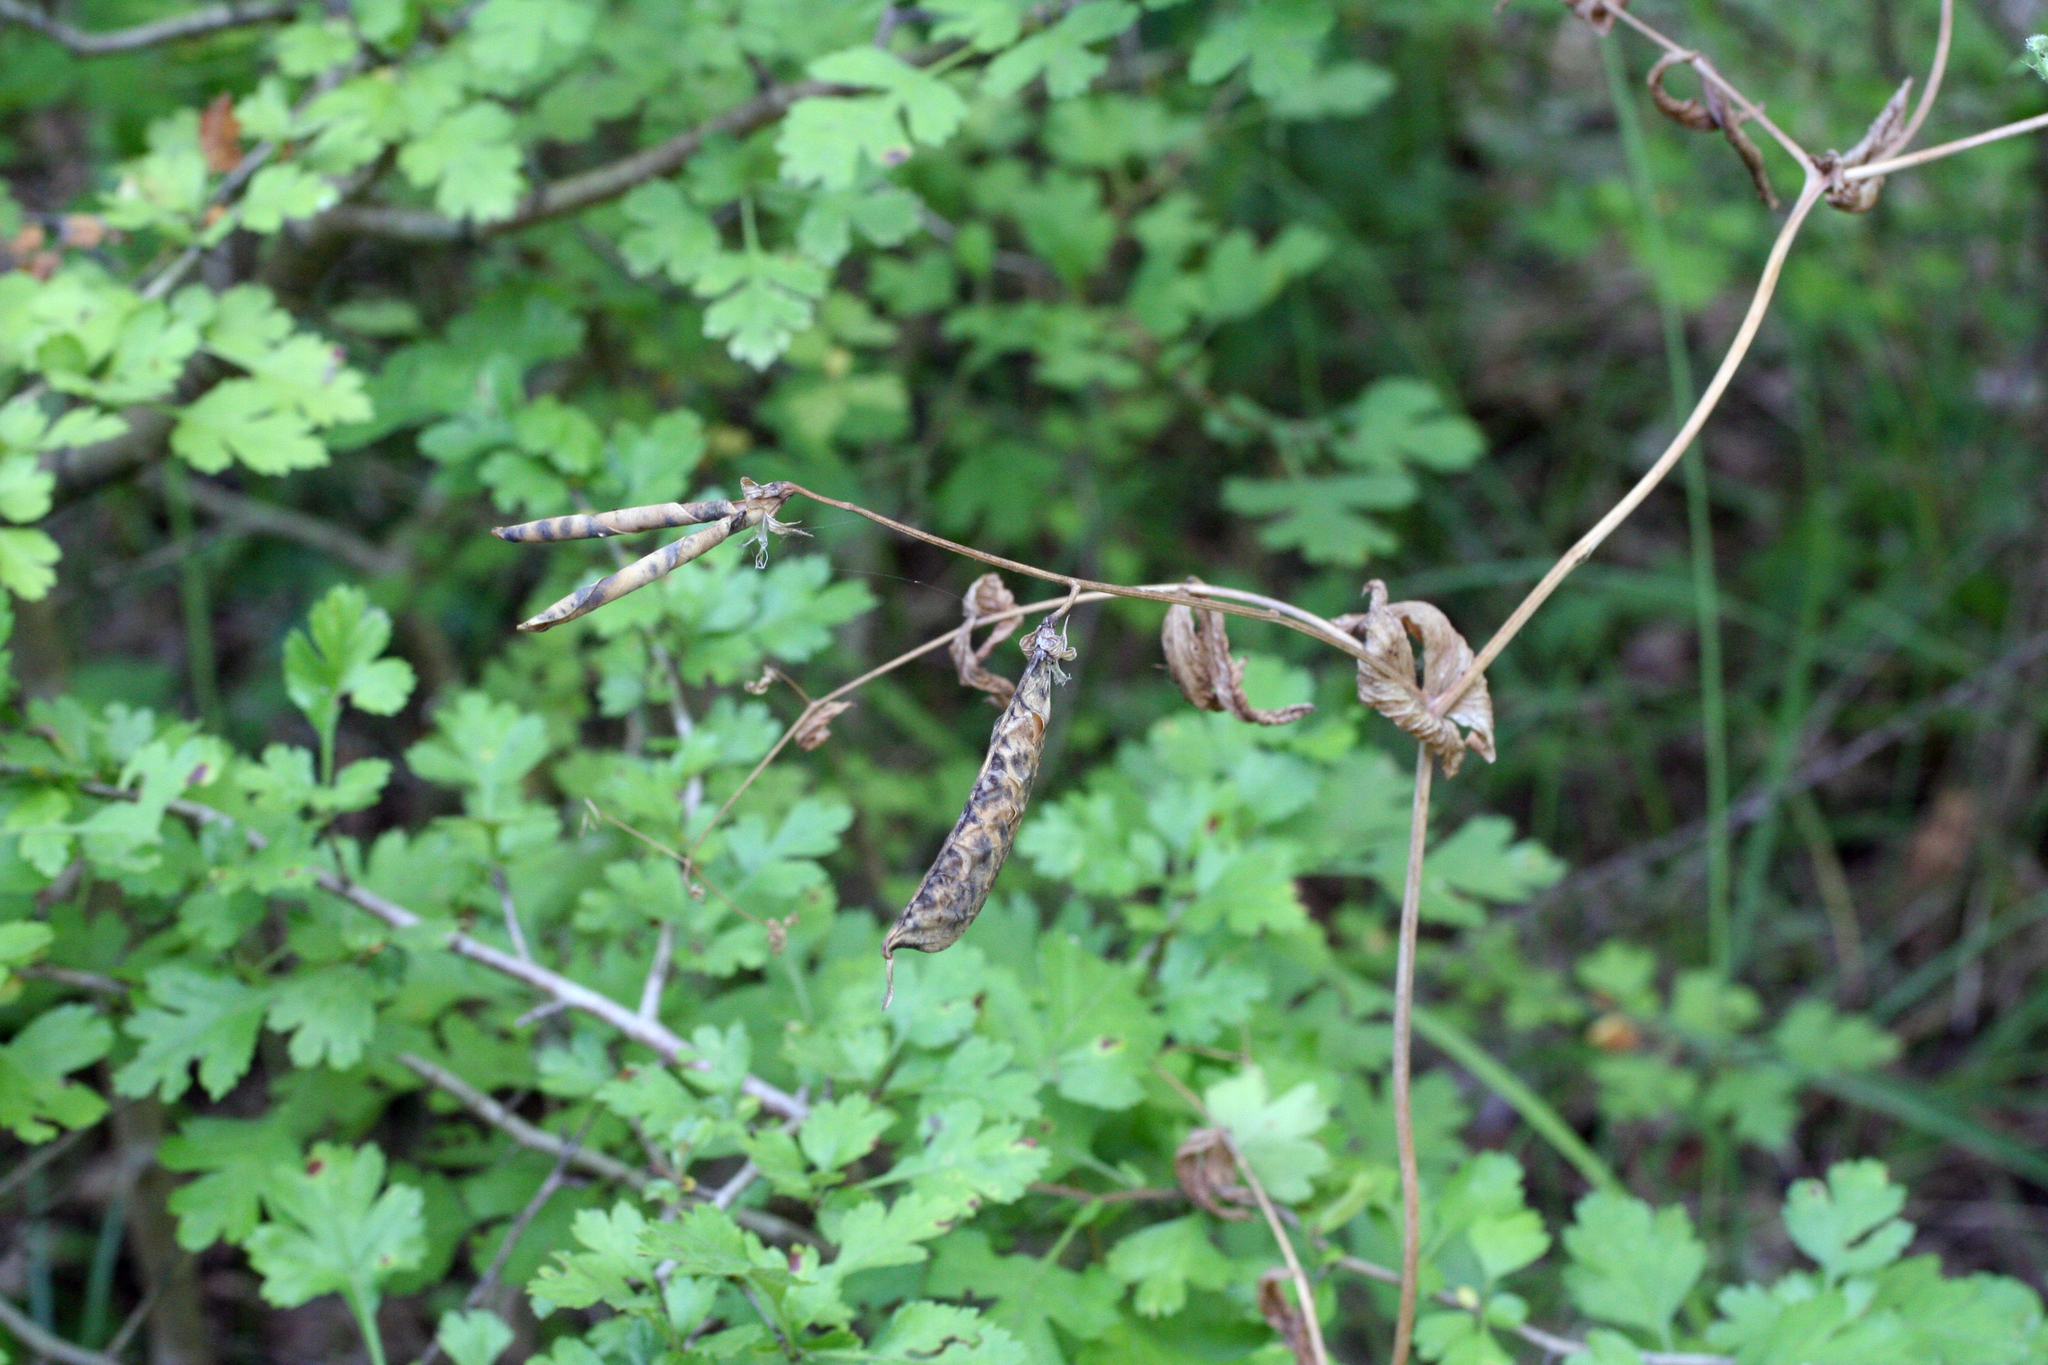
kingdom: Plantae
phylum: Tracheophyta
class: Magnoliopsida
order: Fabales
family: Fabaceae
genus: Lathyrus
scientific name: Lathyrus oleraceus
